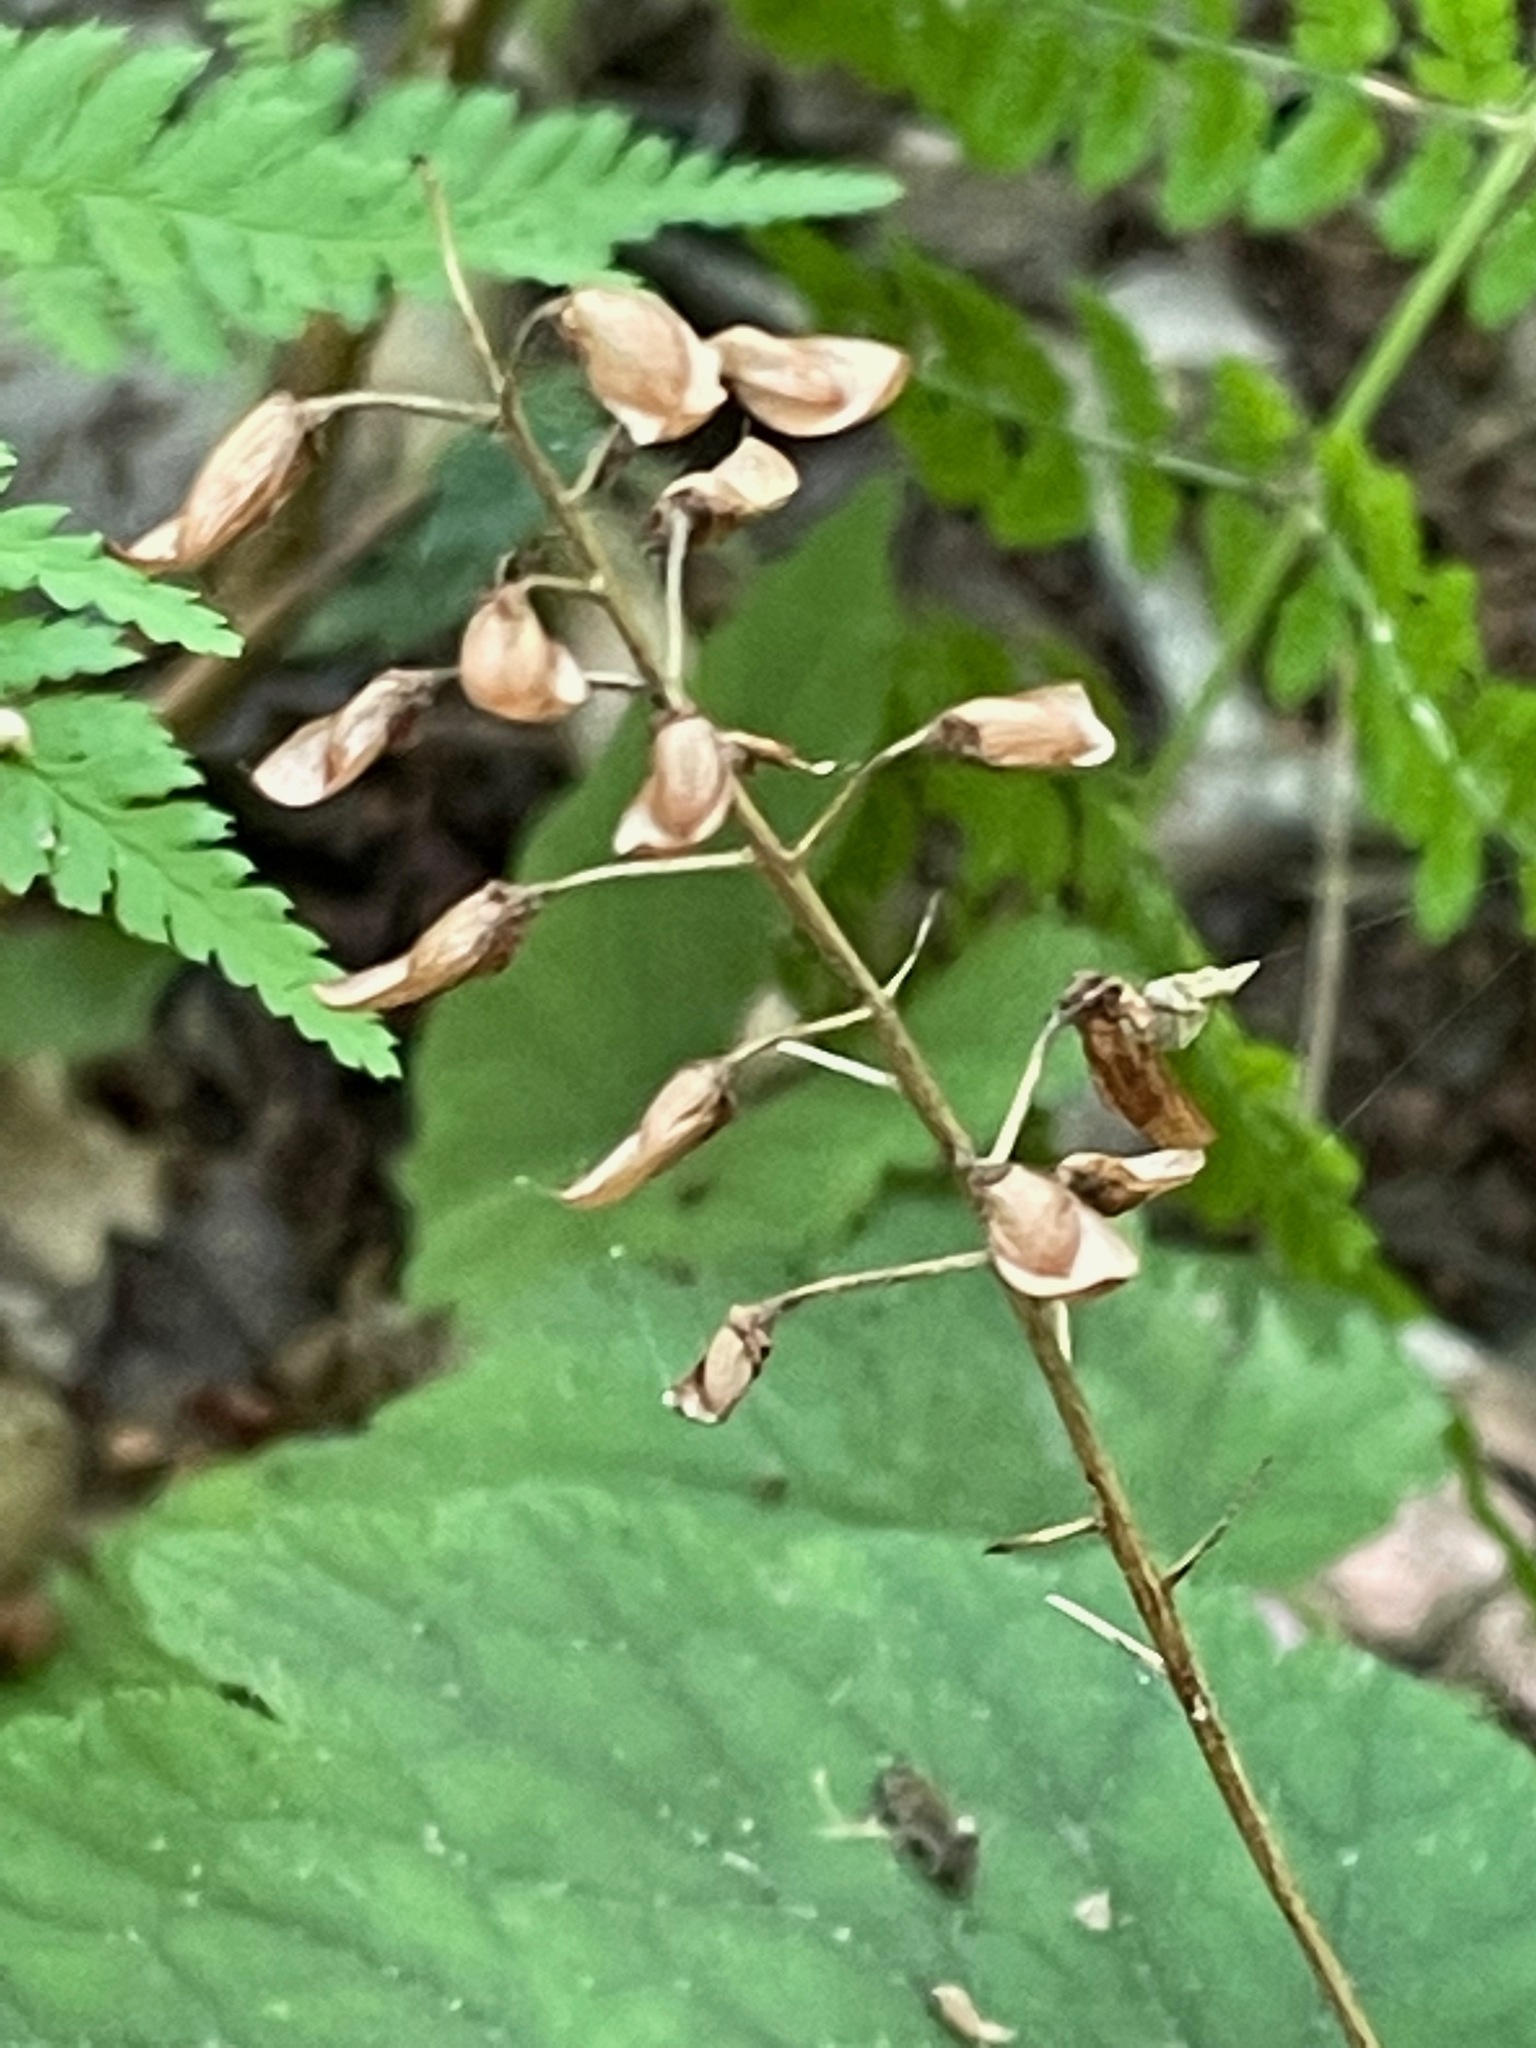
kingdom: Plantae
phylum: Tracheophyta
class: Magnoliopsida
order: Saxifragales
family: Saxifragaceae
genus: Tiarella
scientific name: Tiarella stolonifera
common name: Stoloniferous foamflower
